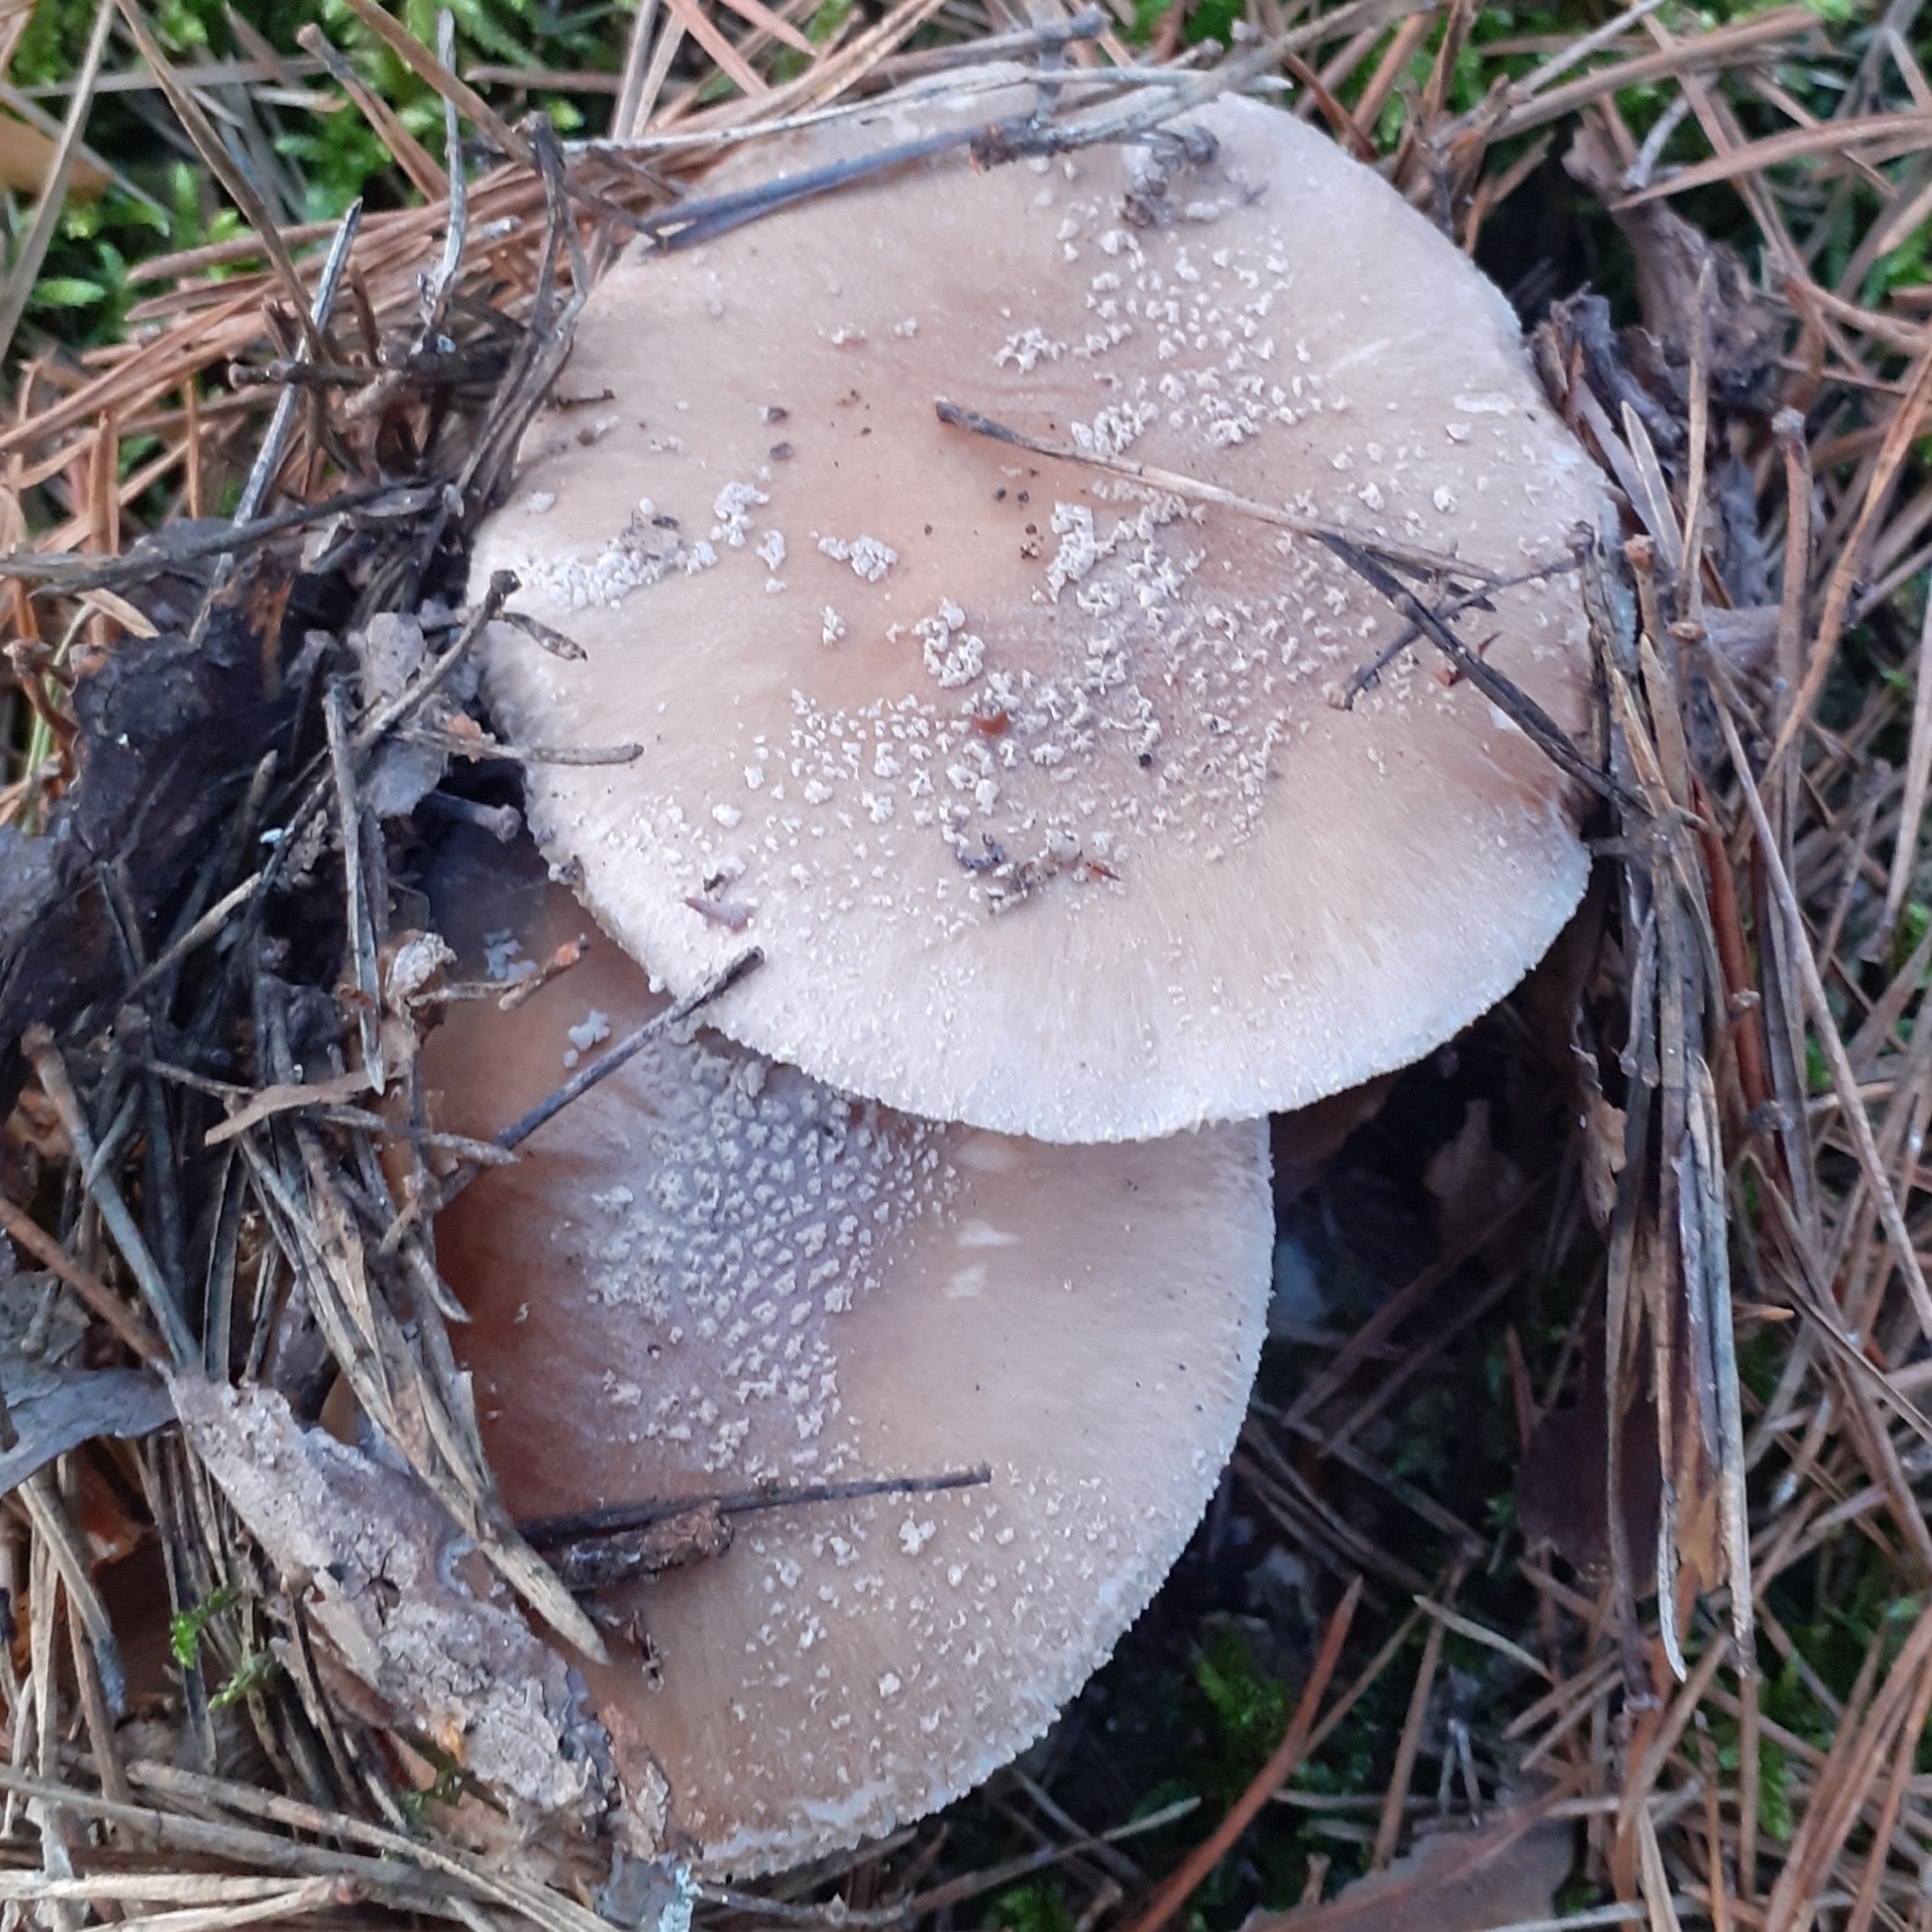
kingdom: Fungi
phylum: Basidiomycota
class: Agaricomycetes
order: Agaricales
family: Amanitaceae
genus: Amanita
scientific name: Amanita rubescens
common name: Blusher
